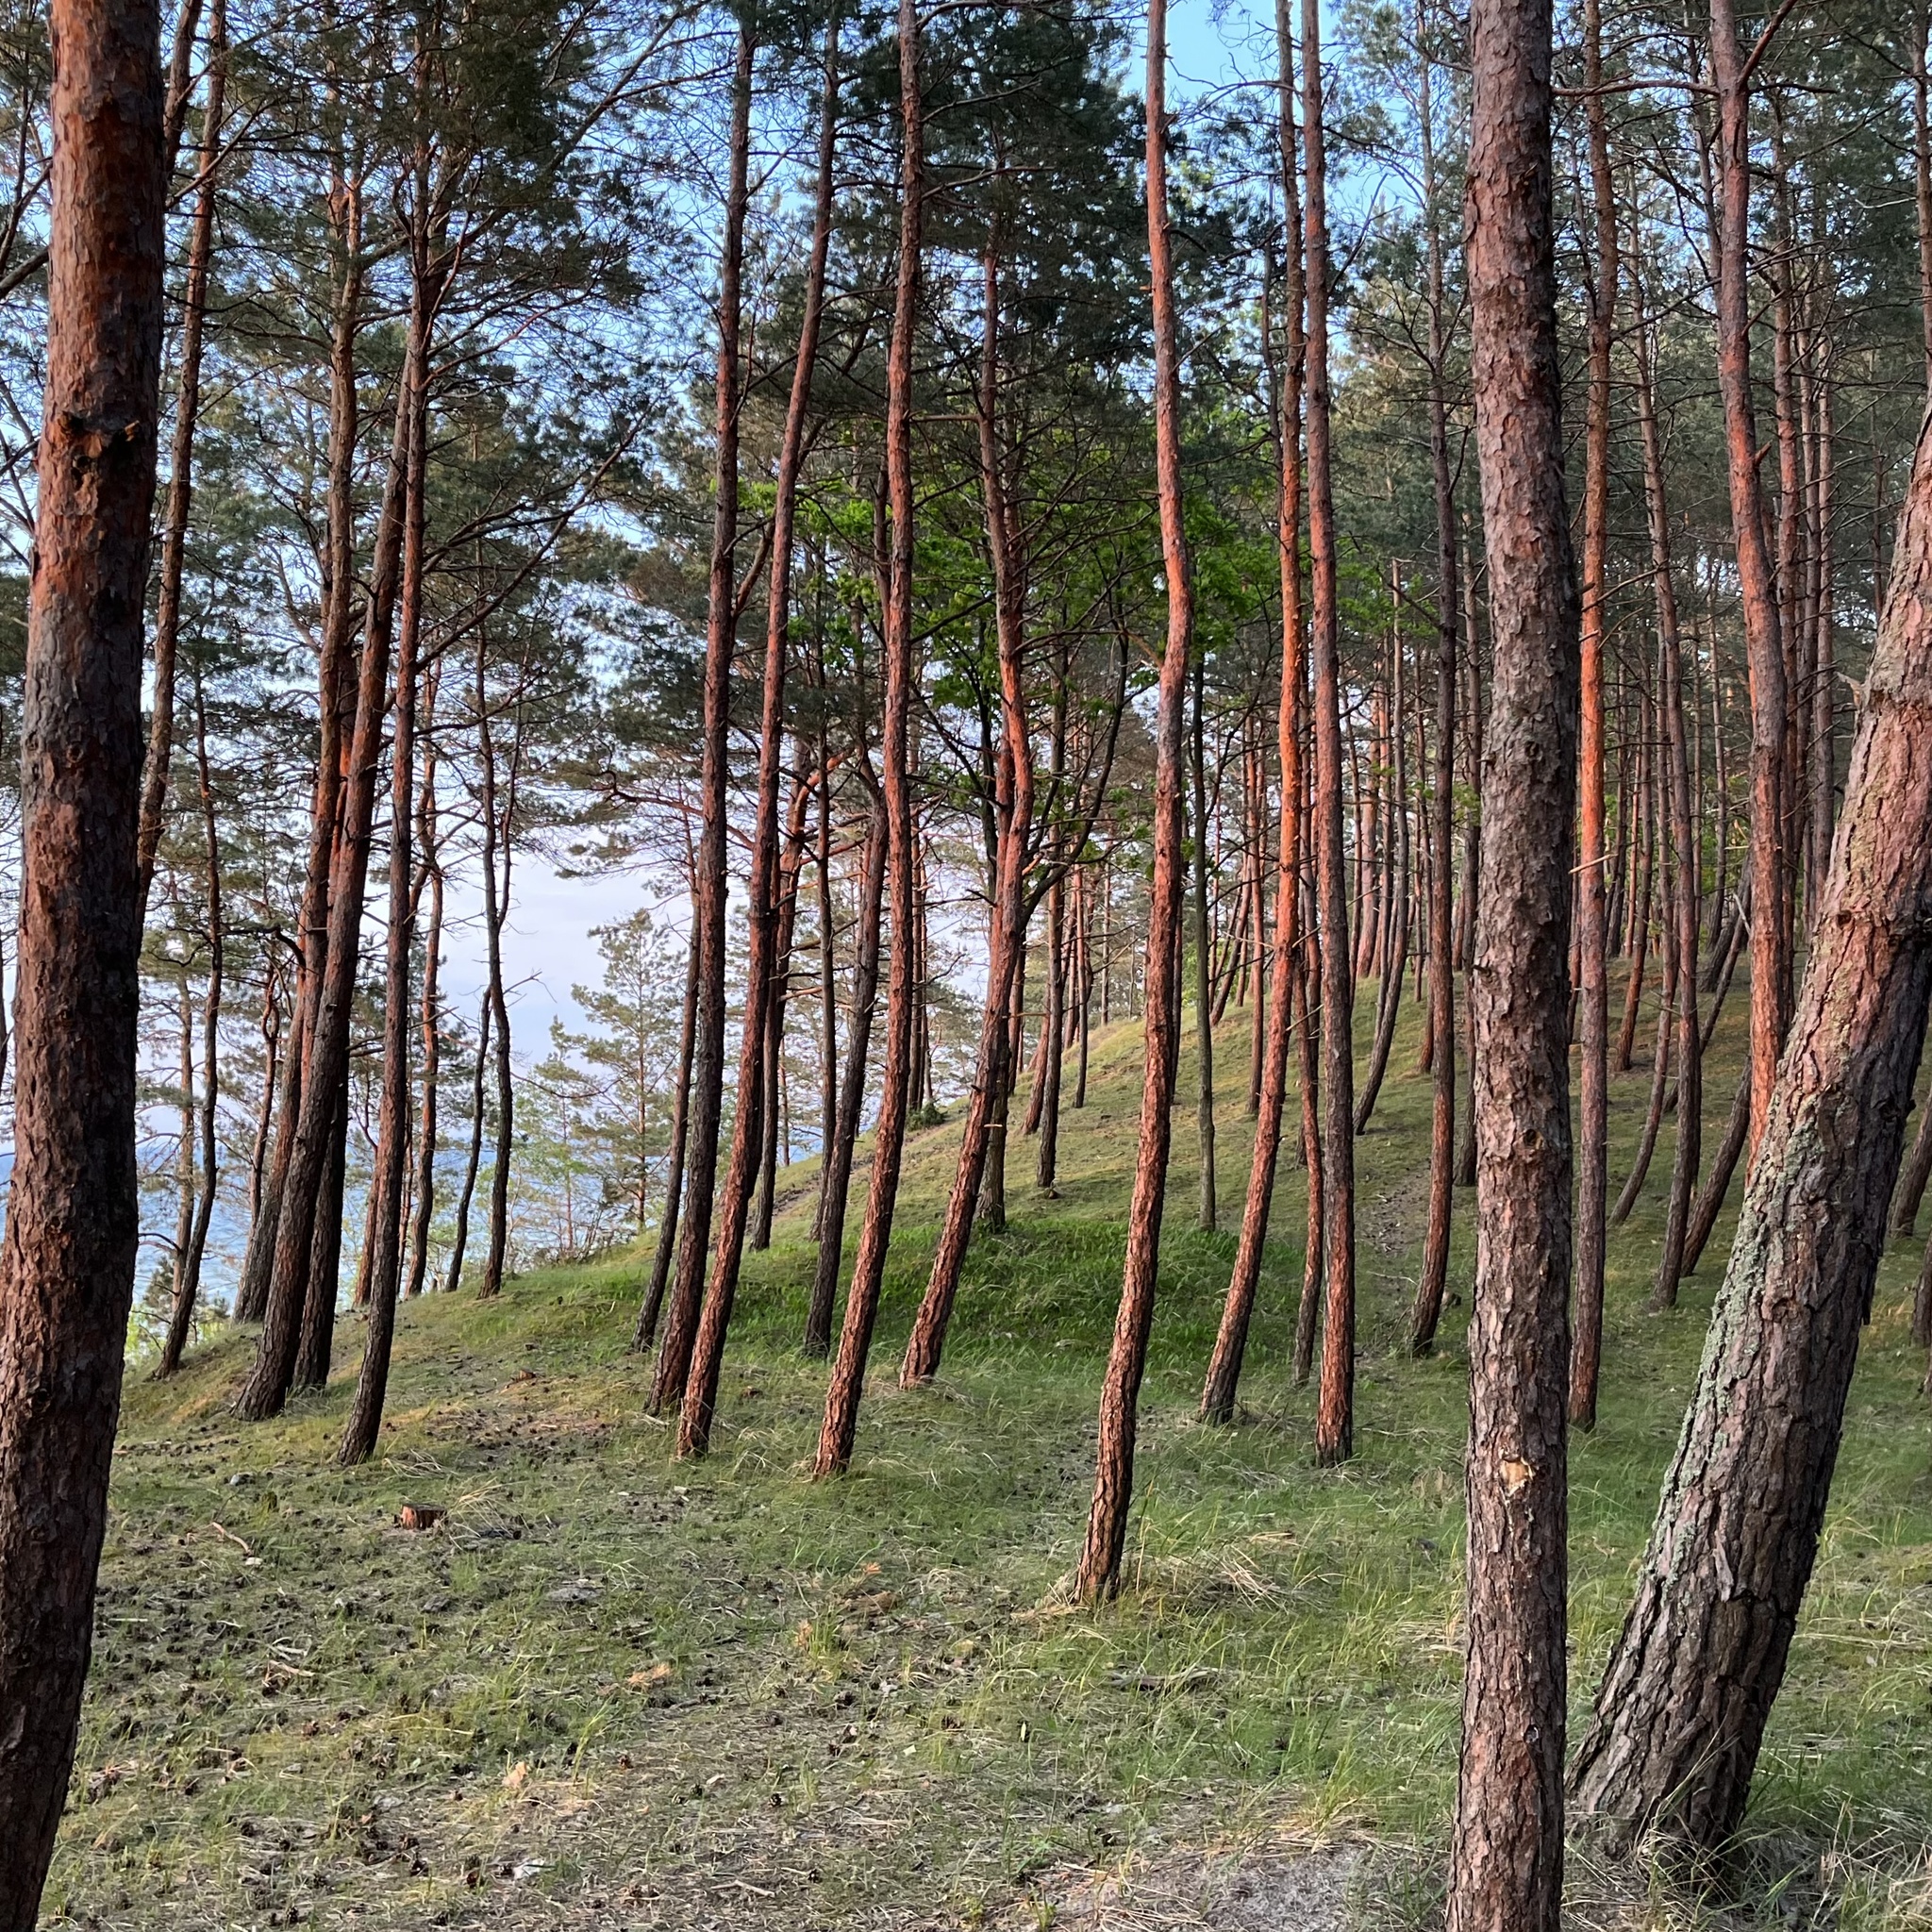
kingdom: Plantae
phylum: Tracheophyta
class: Pinopsida
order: Pinales
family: Pinaceae
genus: Pinus
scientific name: Pinus sylvestris
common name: Scots pine
